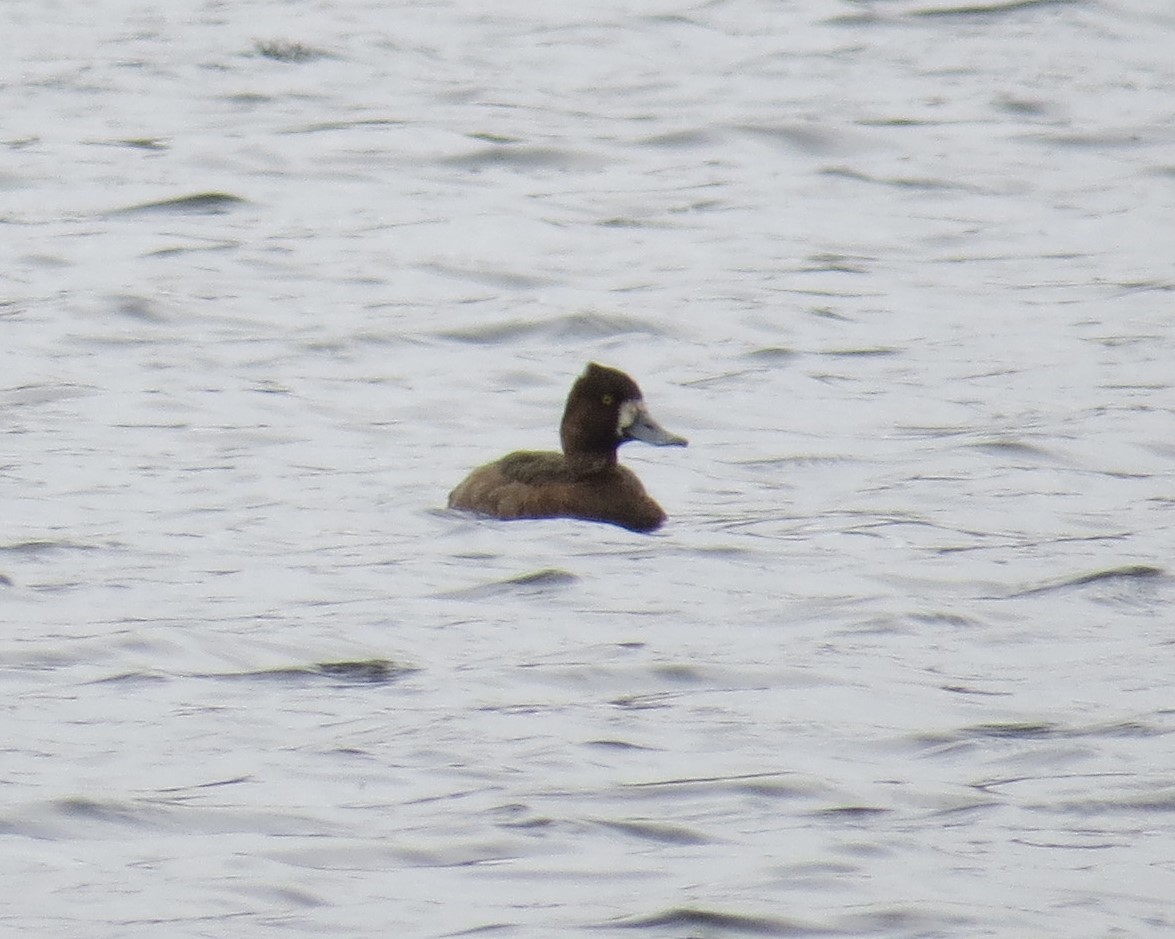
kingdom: Animalia
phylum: Chordata
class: Aves
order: Anseriformes
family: Anatidae
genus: Aythya
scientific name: Aythya affinis
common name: Lesser scaup
